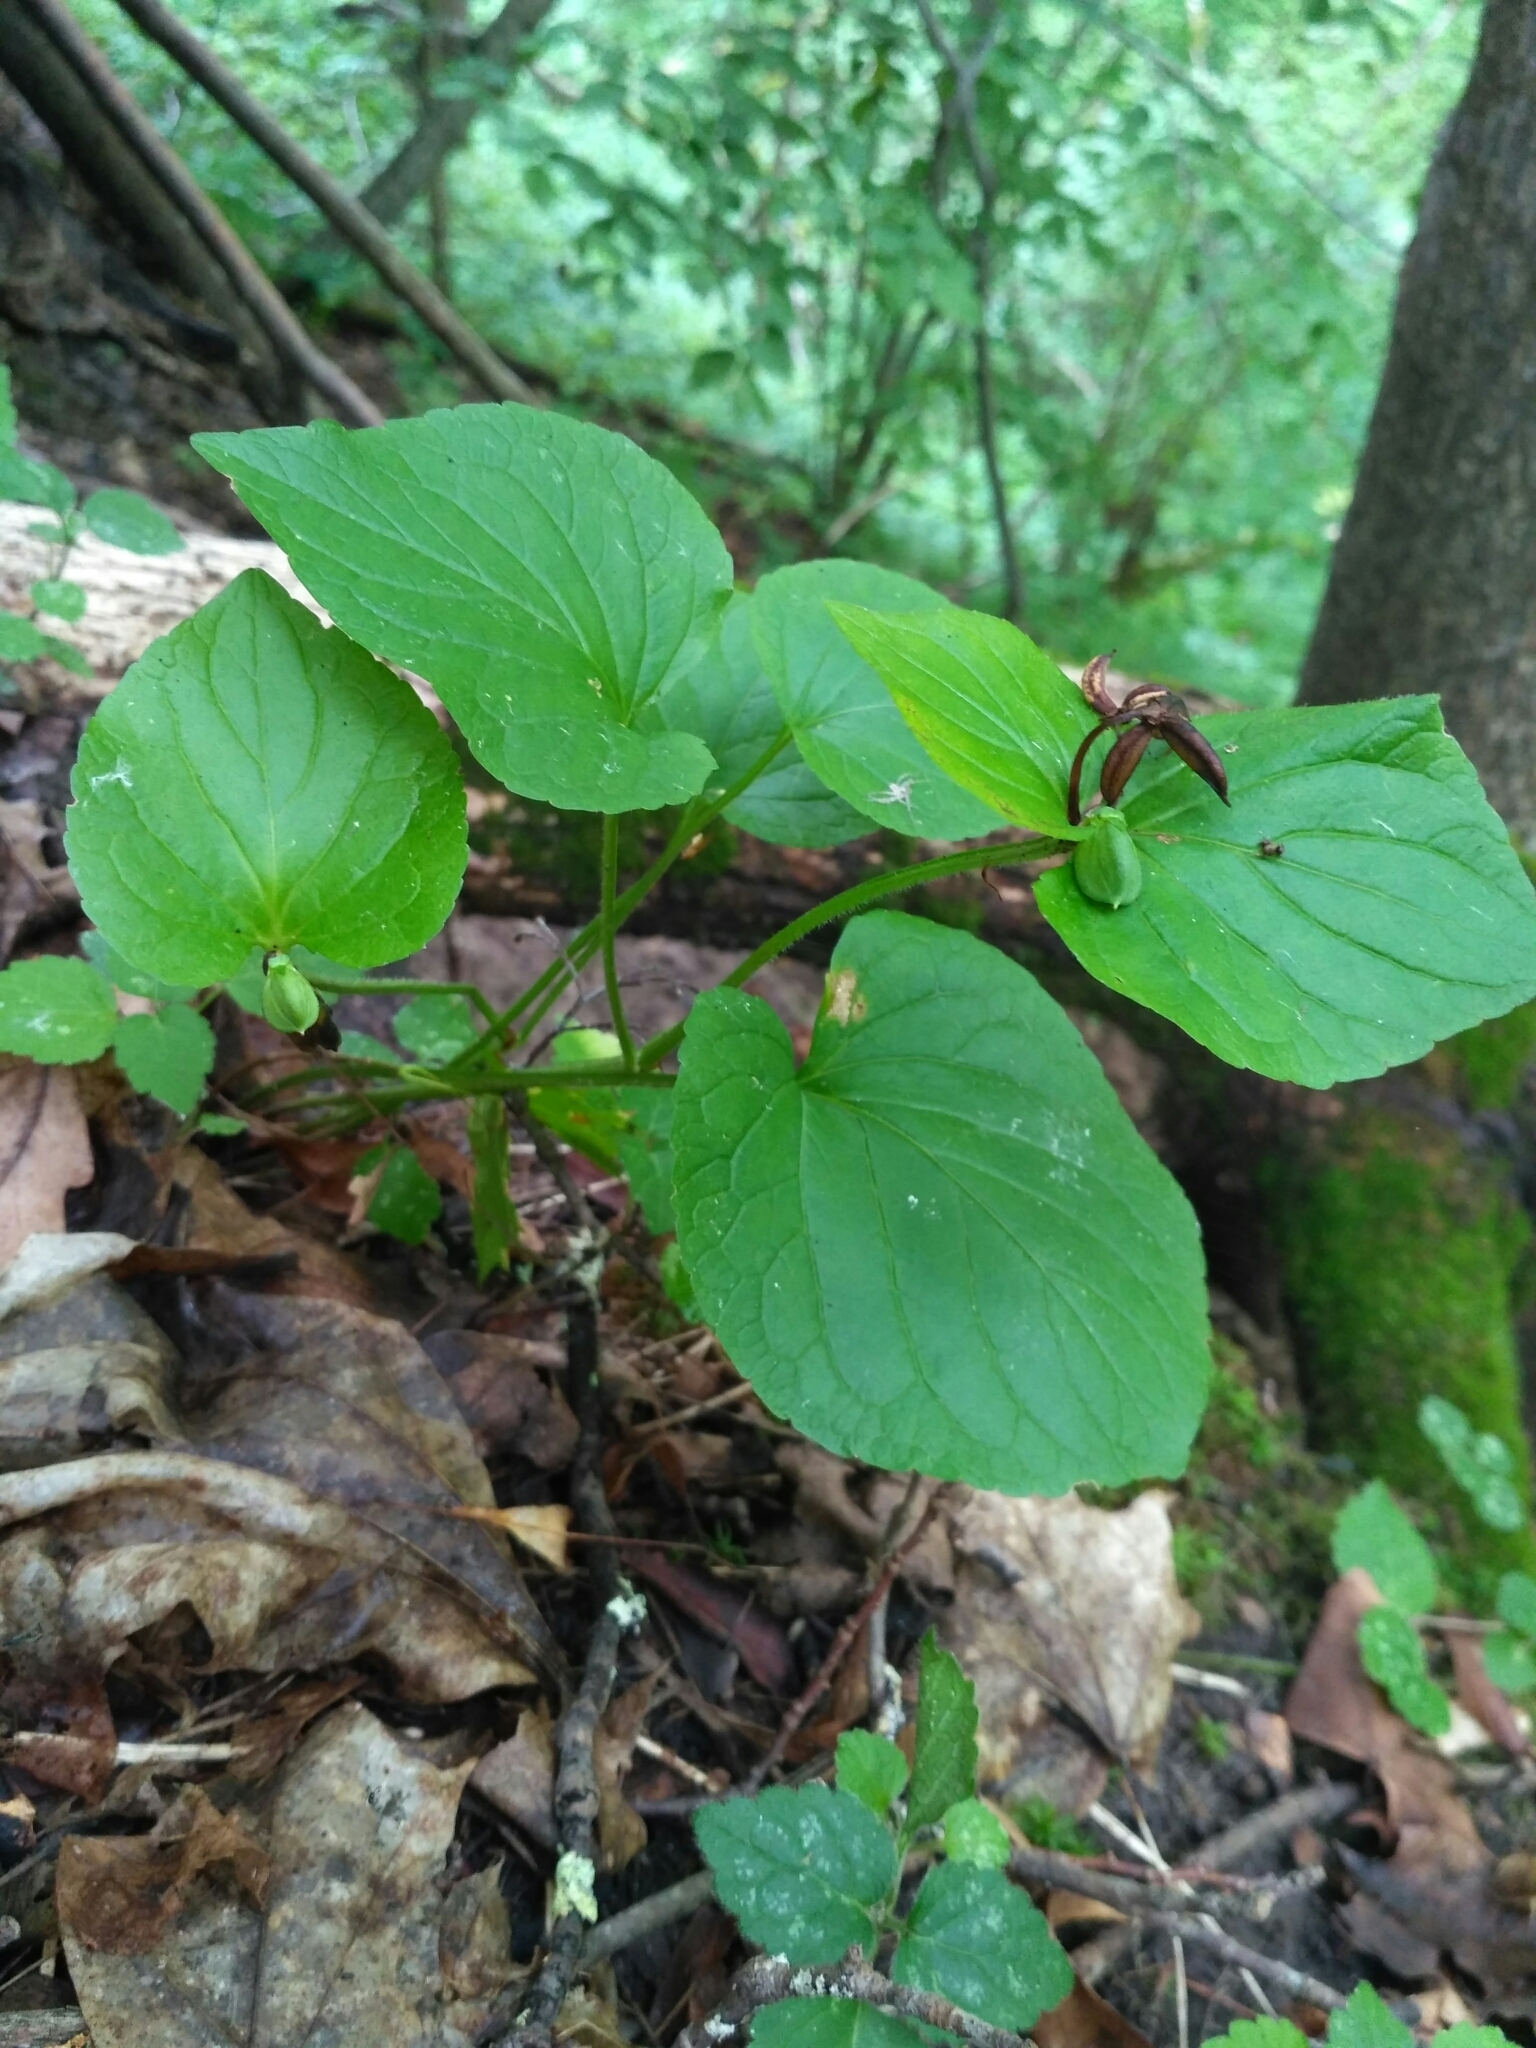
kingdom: Plantae
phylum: Tracheophyta
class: Magnoliopsida
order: Malpighiales
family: Violaceae
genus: Viola
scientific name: Viola mirabilis
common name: Wonder violet
